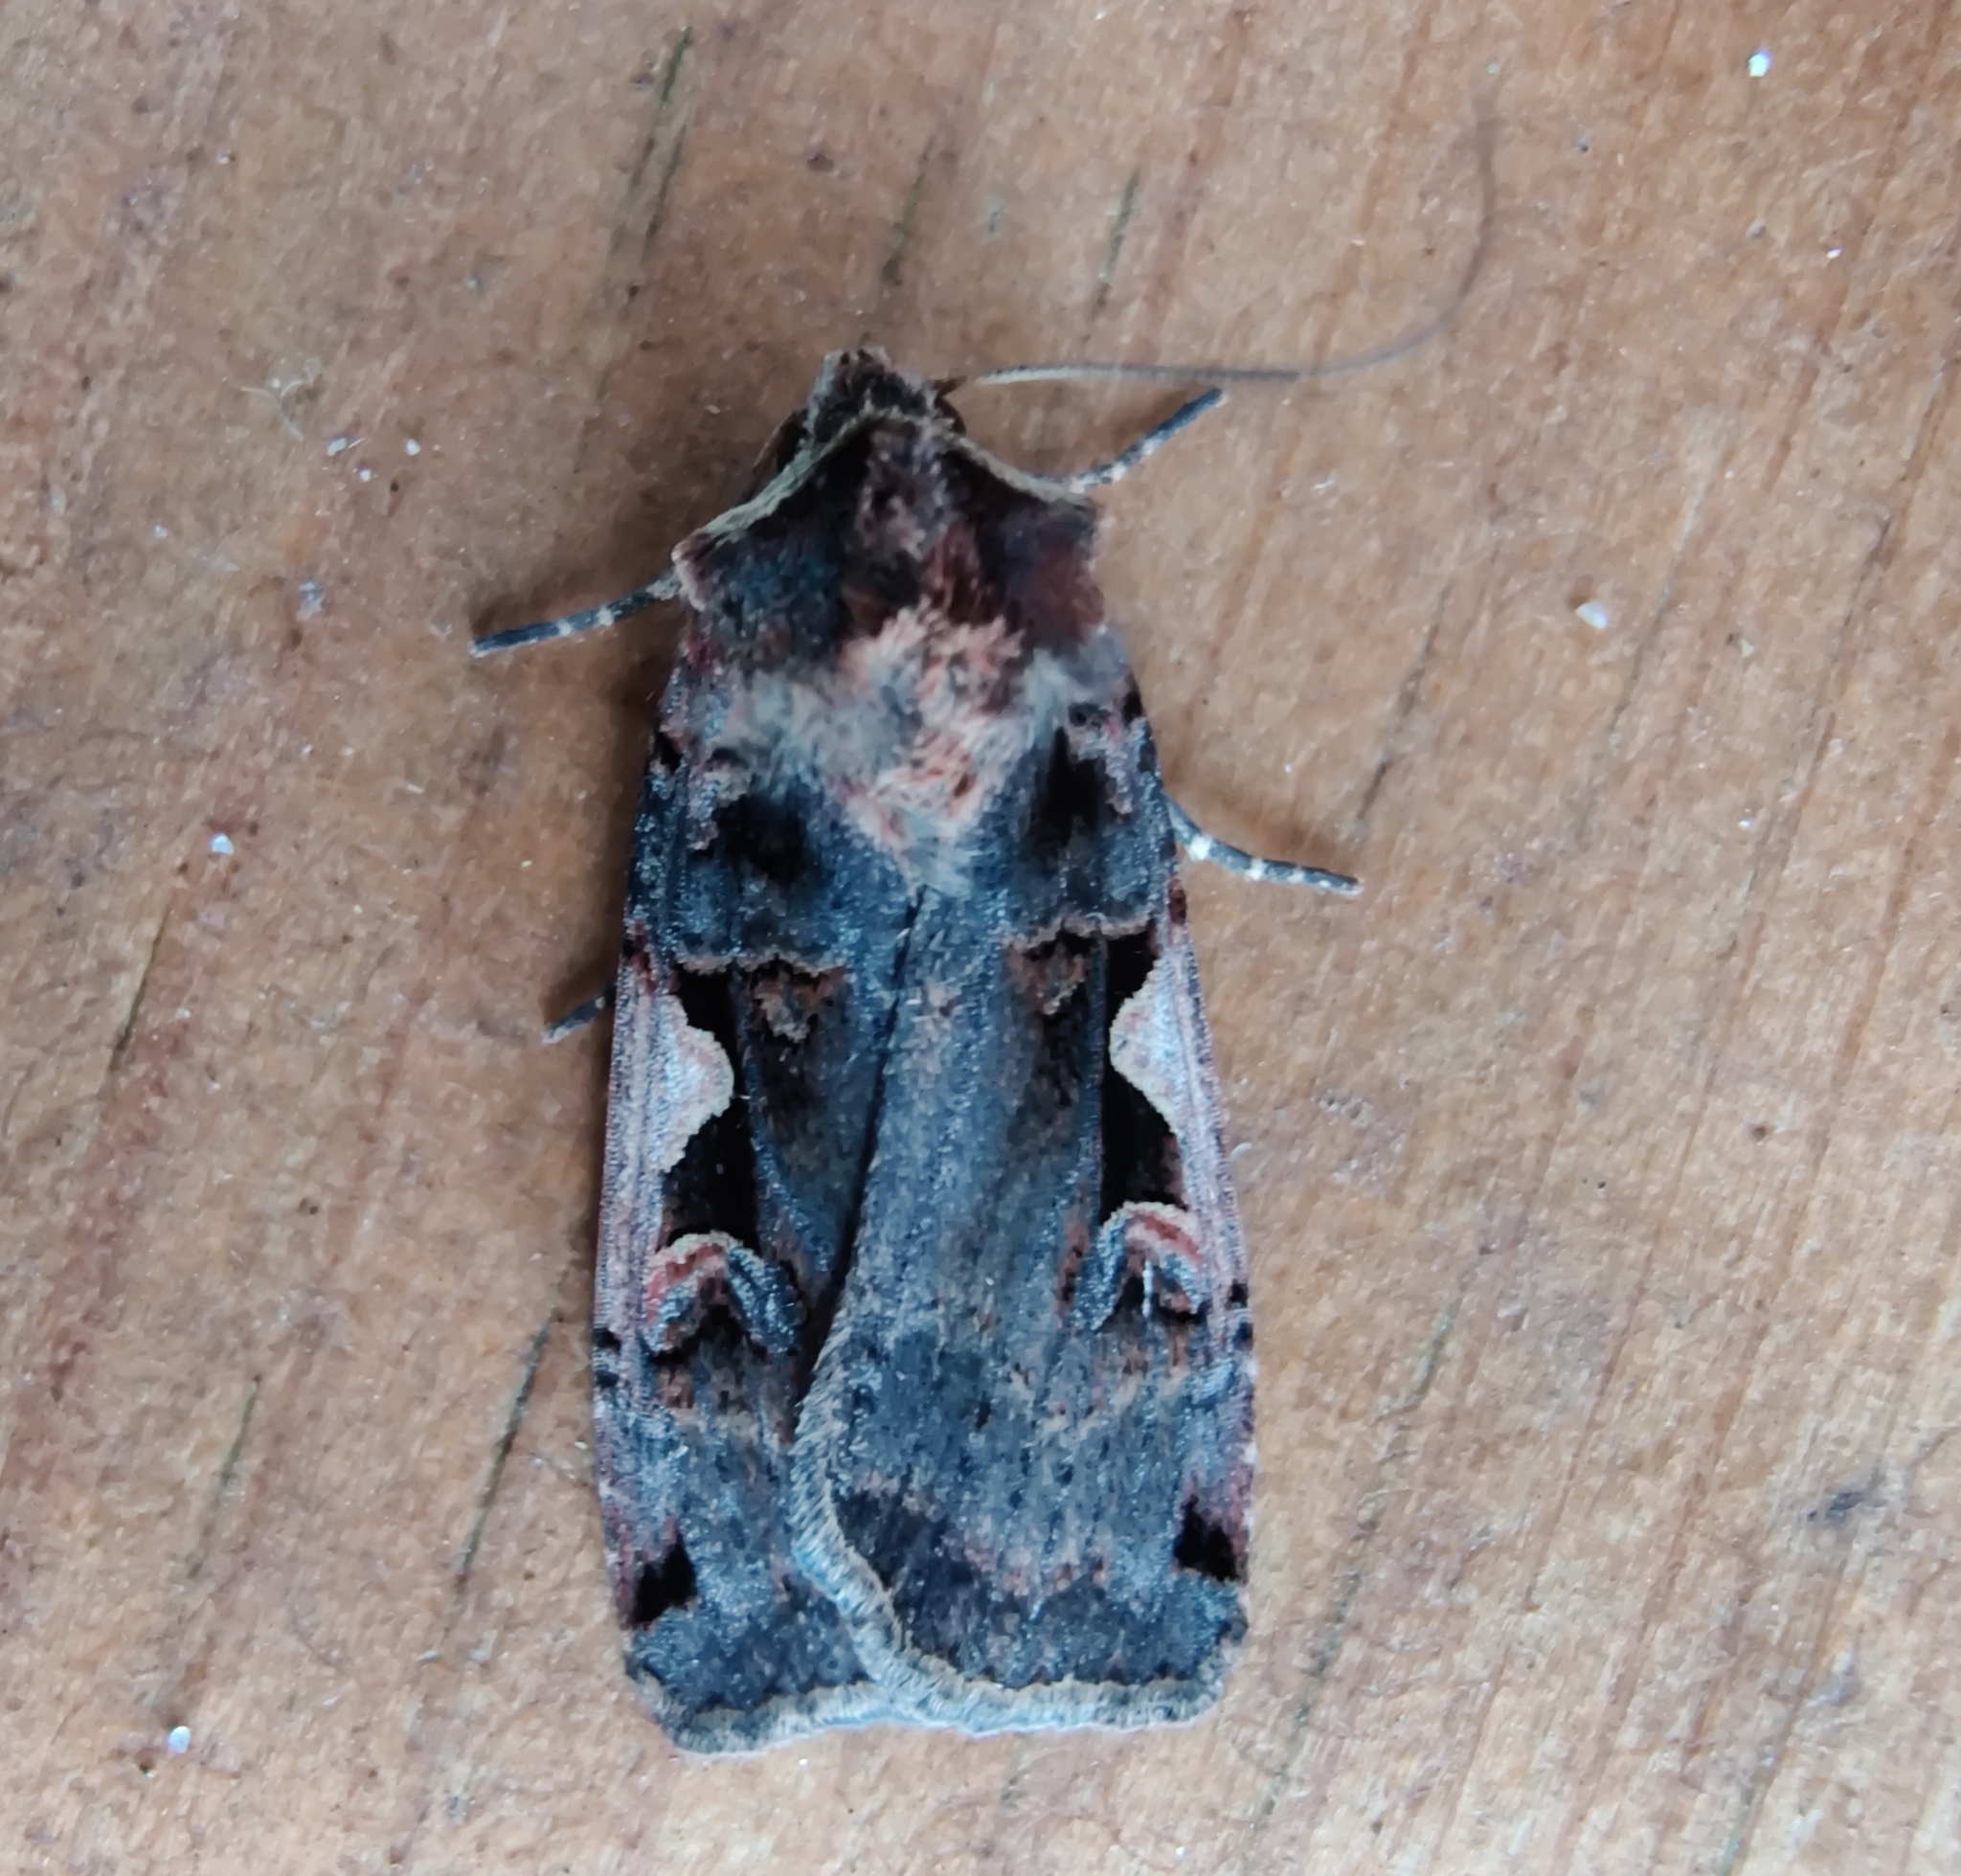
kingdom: Animalia
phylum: Arthropoda
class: Insecta
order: Lepidoptera
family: Noctuidae
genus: Xestia
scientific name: Xestia c-nigrum
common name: Setaceous hebrew character
